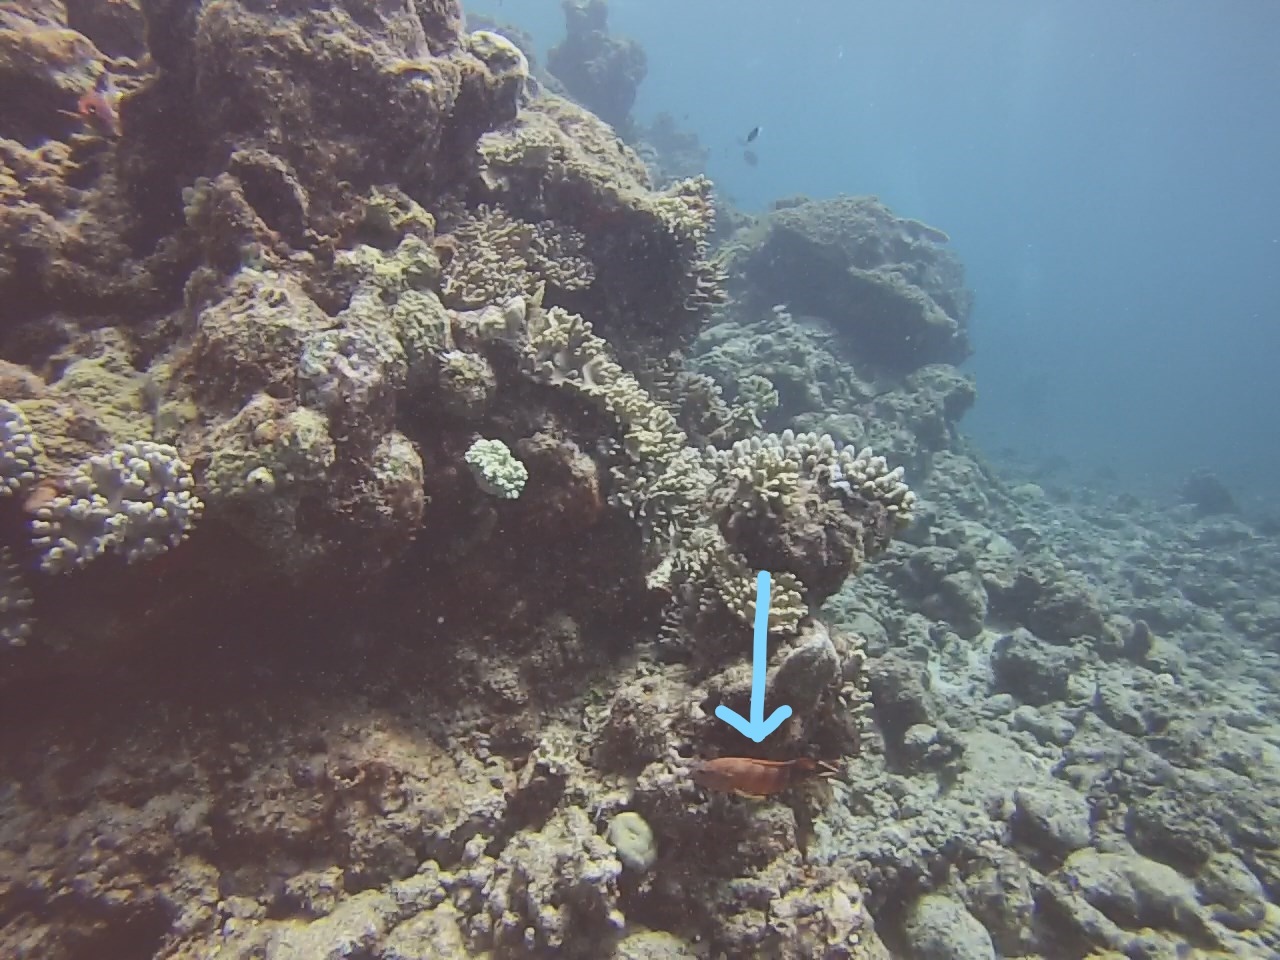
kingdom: Animalia
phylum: Chordata
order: Perciformes
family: Serranidae
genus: Cephalopholis
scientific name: Cephalopholis urodeta
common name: Darkfin hind
